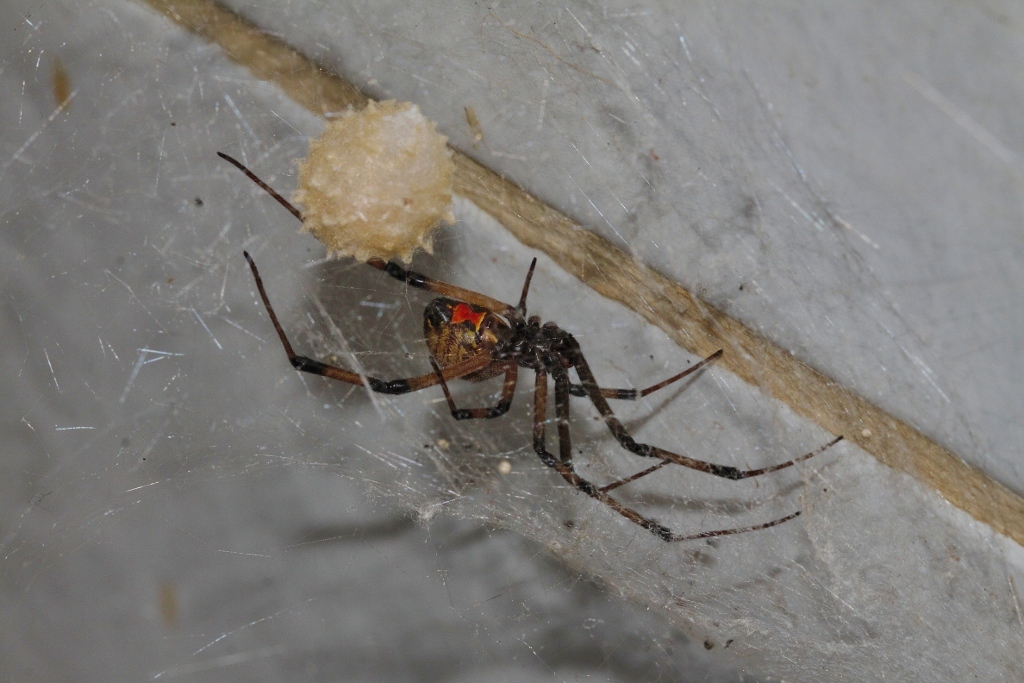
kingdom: Animalia
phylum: Arthropoda
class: Arachnida
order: Araneae
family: Theridiidae
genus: Latrodectus
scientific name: Latrodectus geometricus
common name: Brown widow spider
